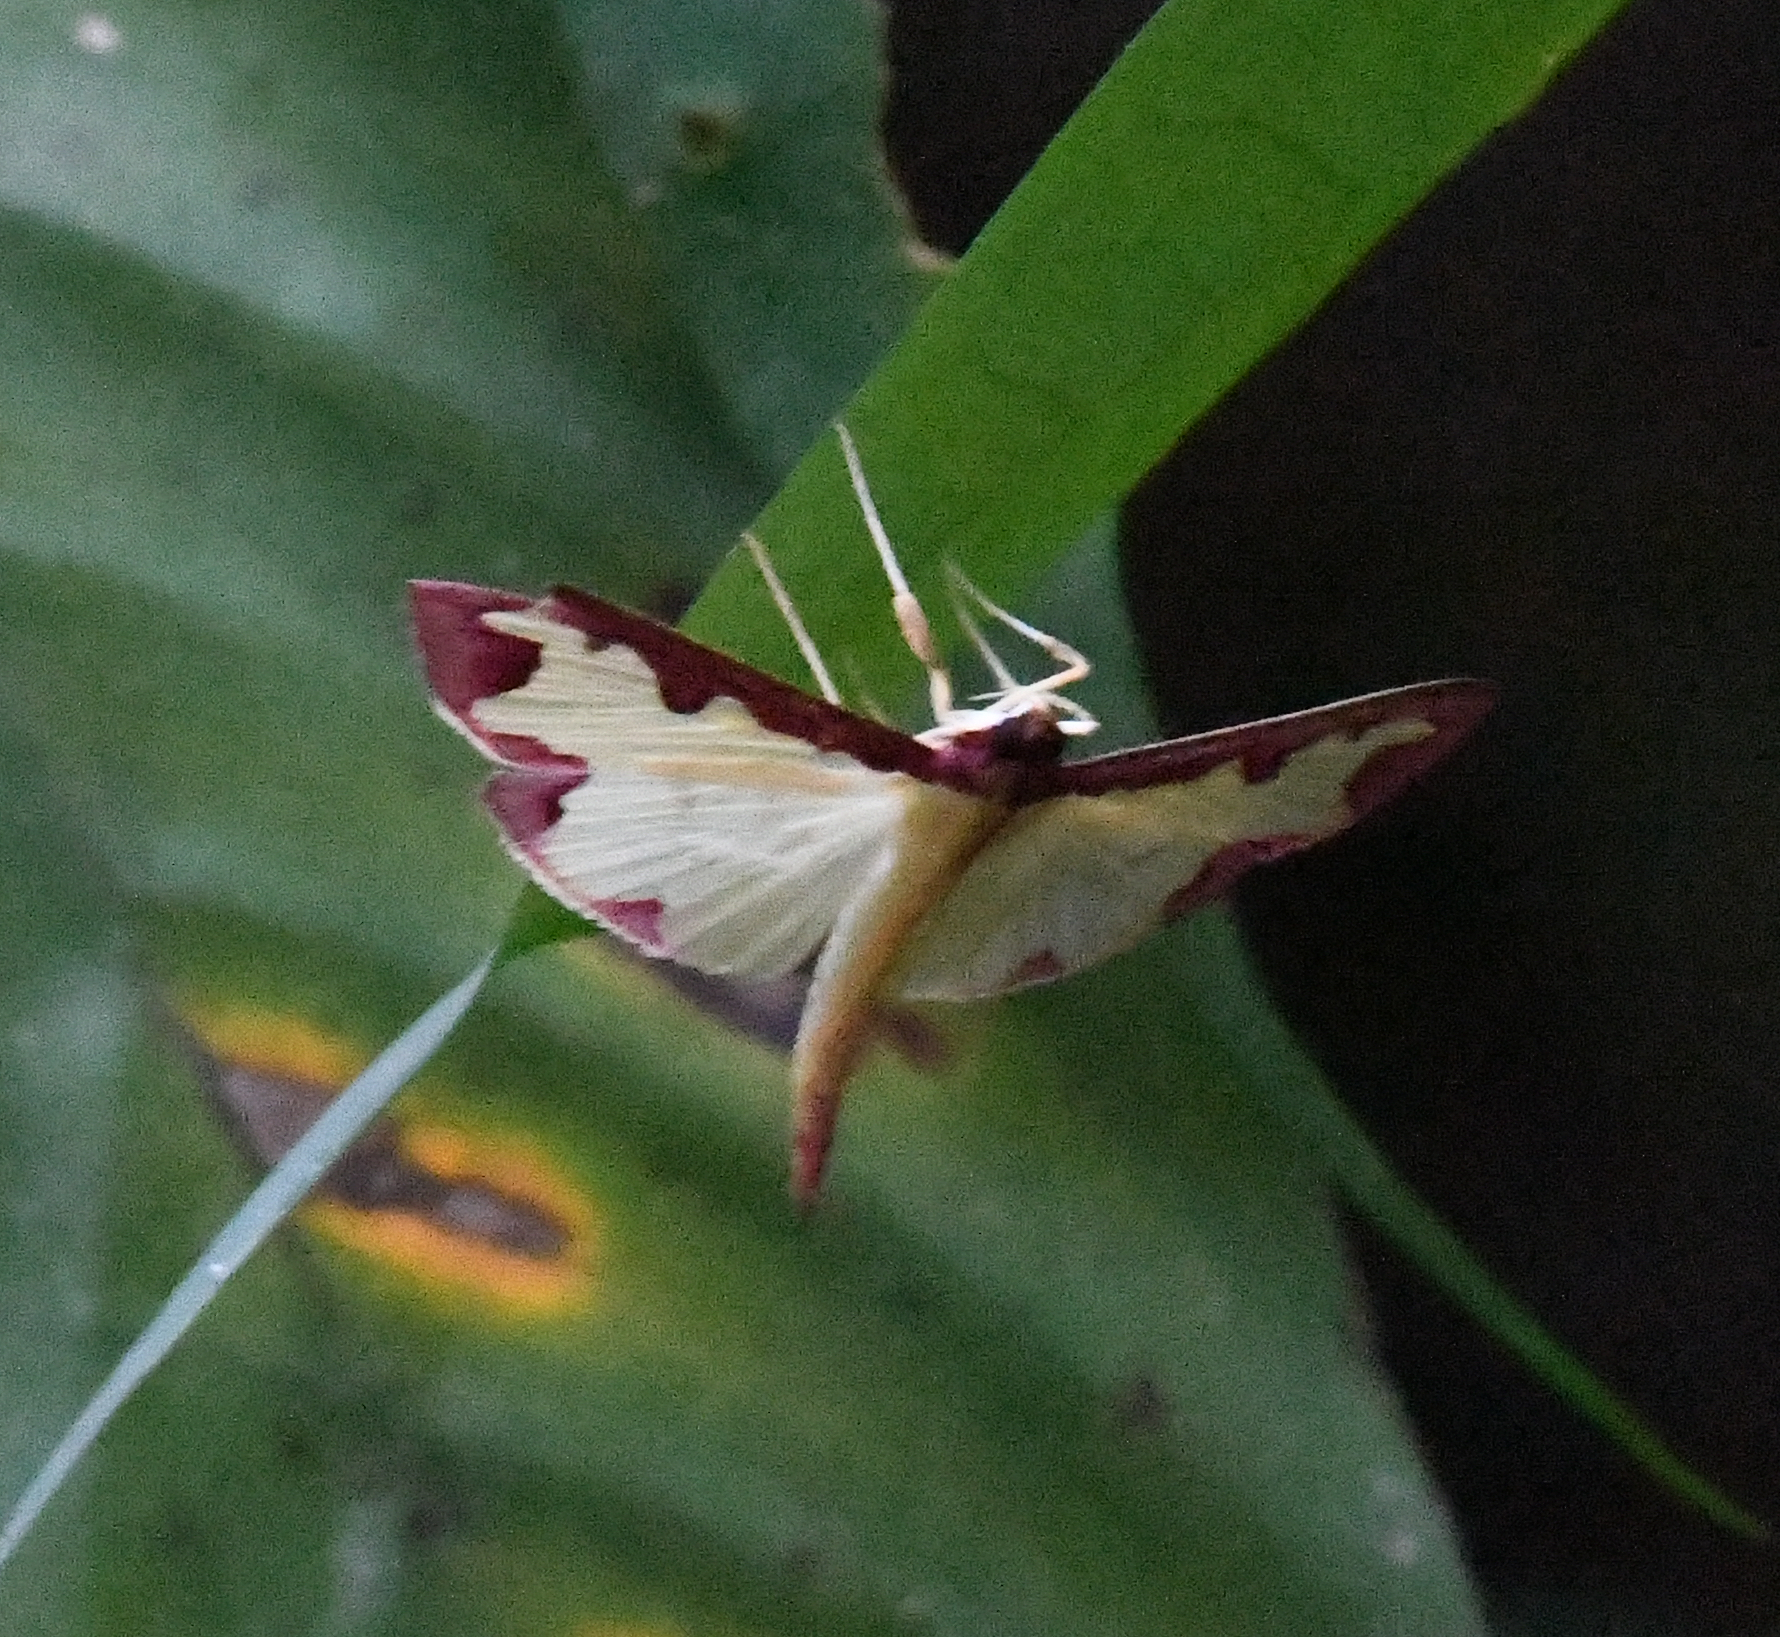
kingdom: Animalia
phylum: Arthropoda
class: Insecta
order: Lepidoptera
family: Crambidae
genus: Cadarena
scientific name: Cadarena pudoraria
